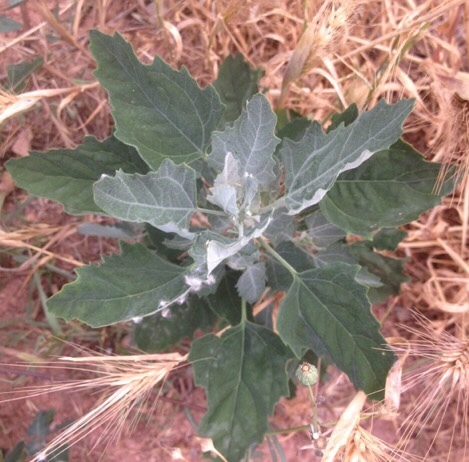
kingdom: Plantae
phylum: Tracheophyta
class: Magnoliopsida
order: Caryophyllales
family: Amaranthaceae
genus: Chenopodium
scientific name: Chenopodium album
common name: Fat-hen
